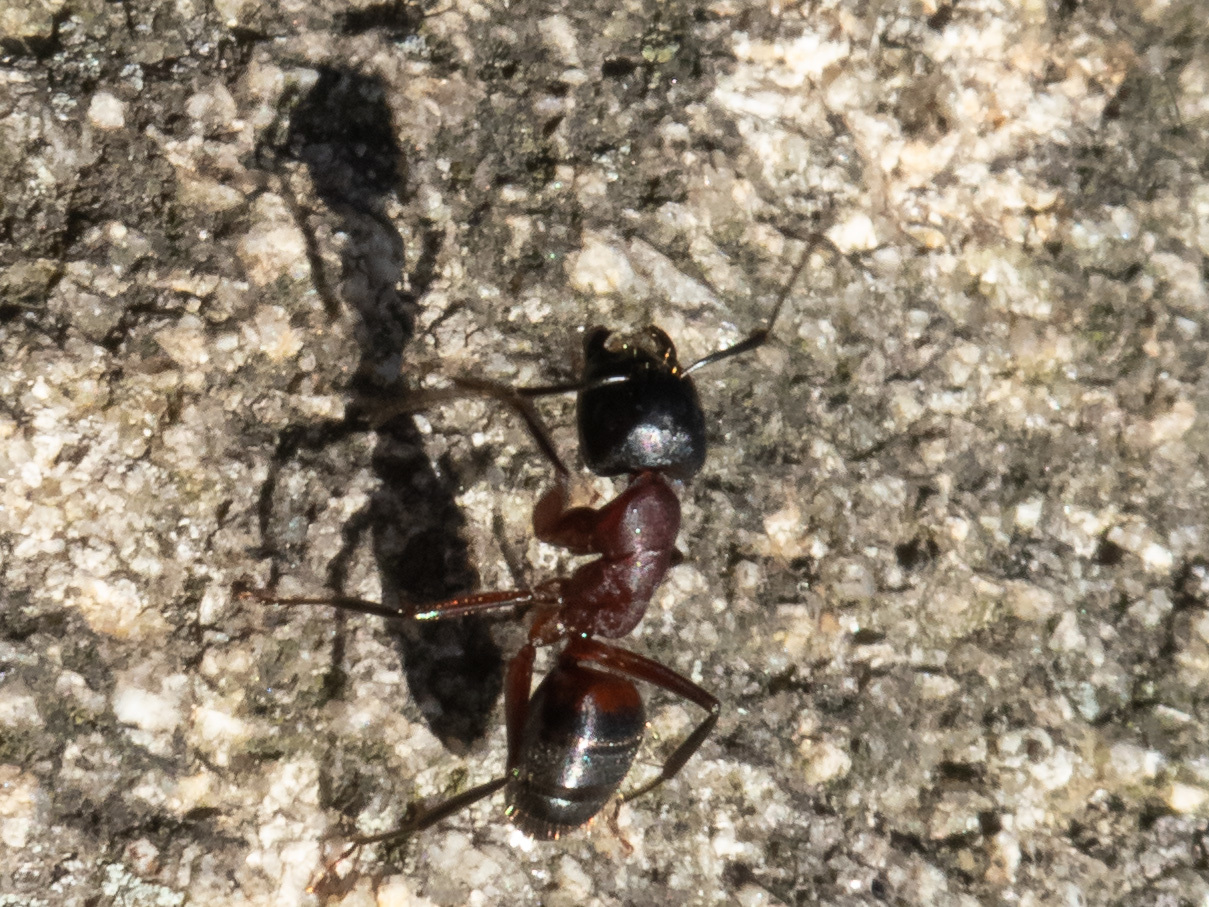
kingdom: Animalia
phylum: Arthropoda
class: Insecta
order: Hymenoptera
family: Formicidae
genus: Camponotus
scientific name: Camponotus ligniperdus
